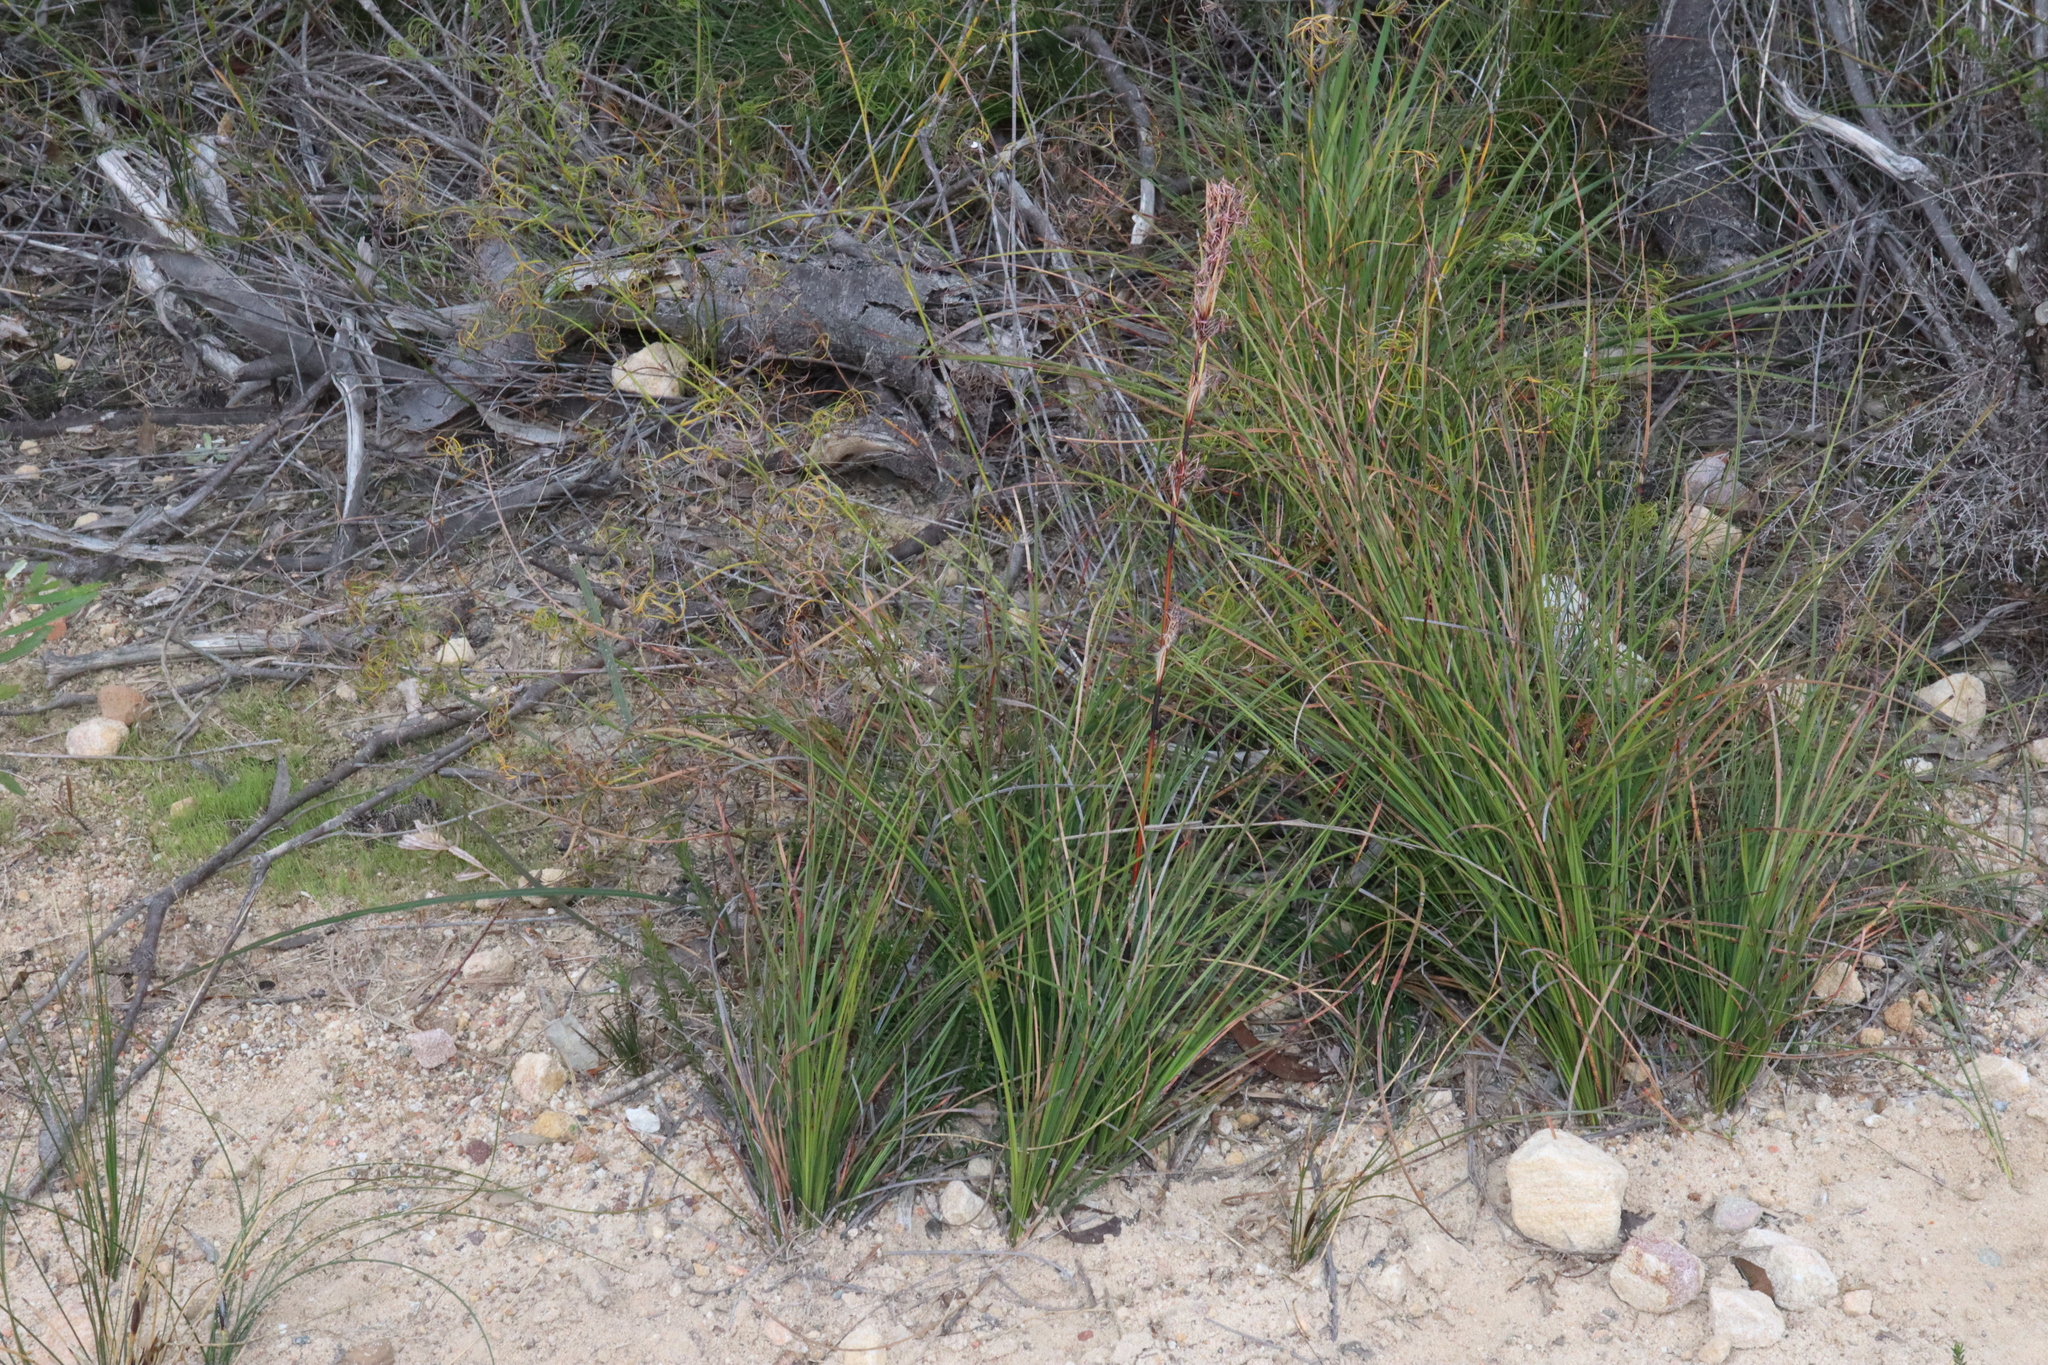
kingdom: Plantae
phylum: Tracheophyta
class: Liliopsida
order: Poales
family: Cyperaceae
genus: Schoenus
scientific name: Schoenus villosus
